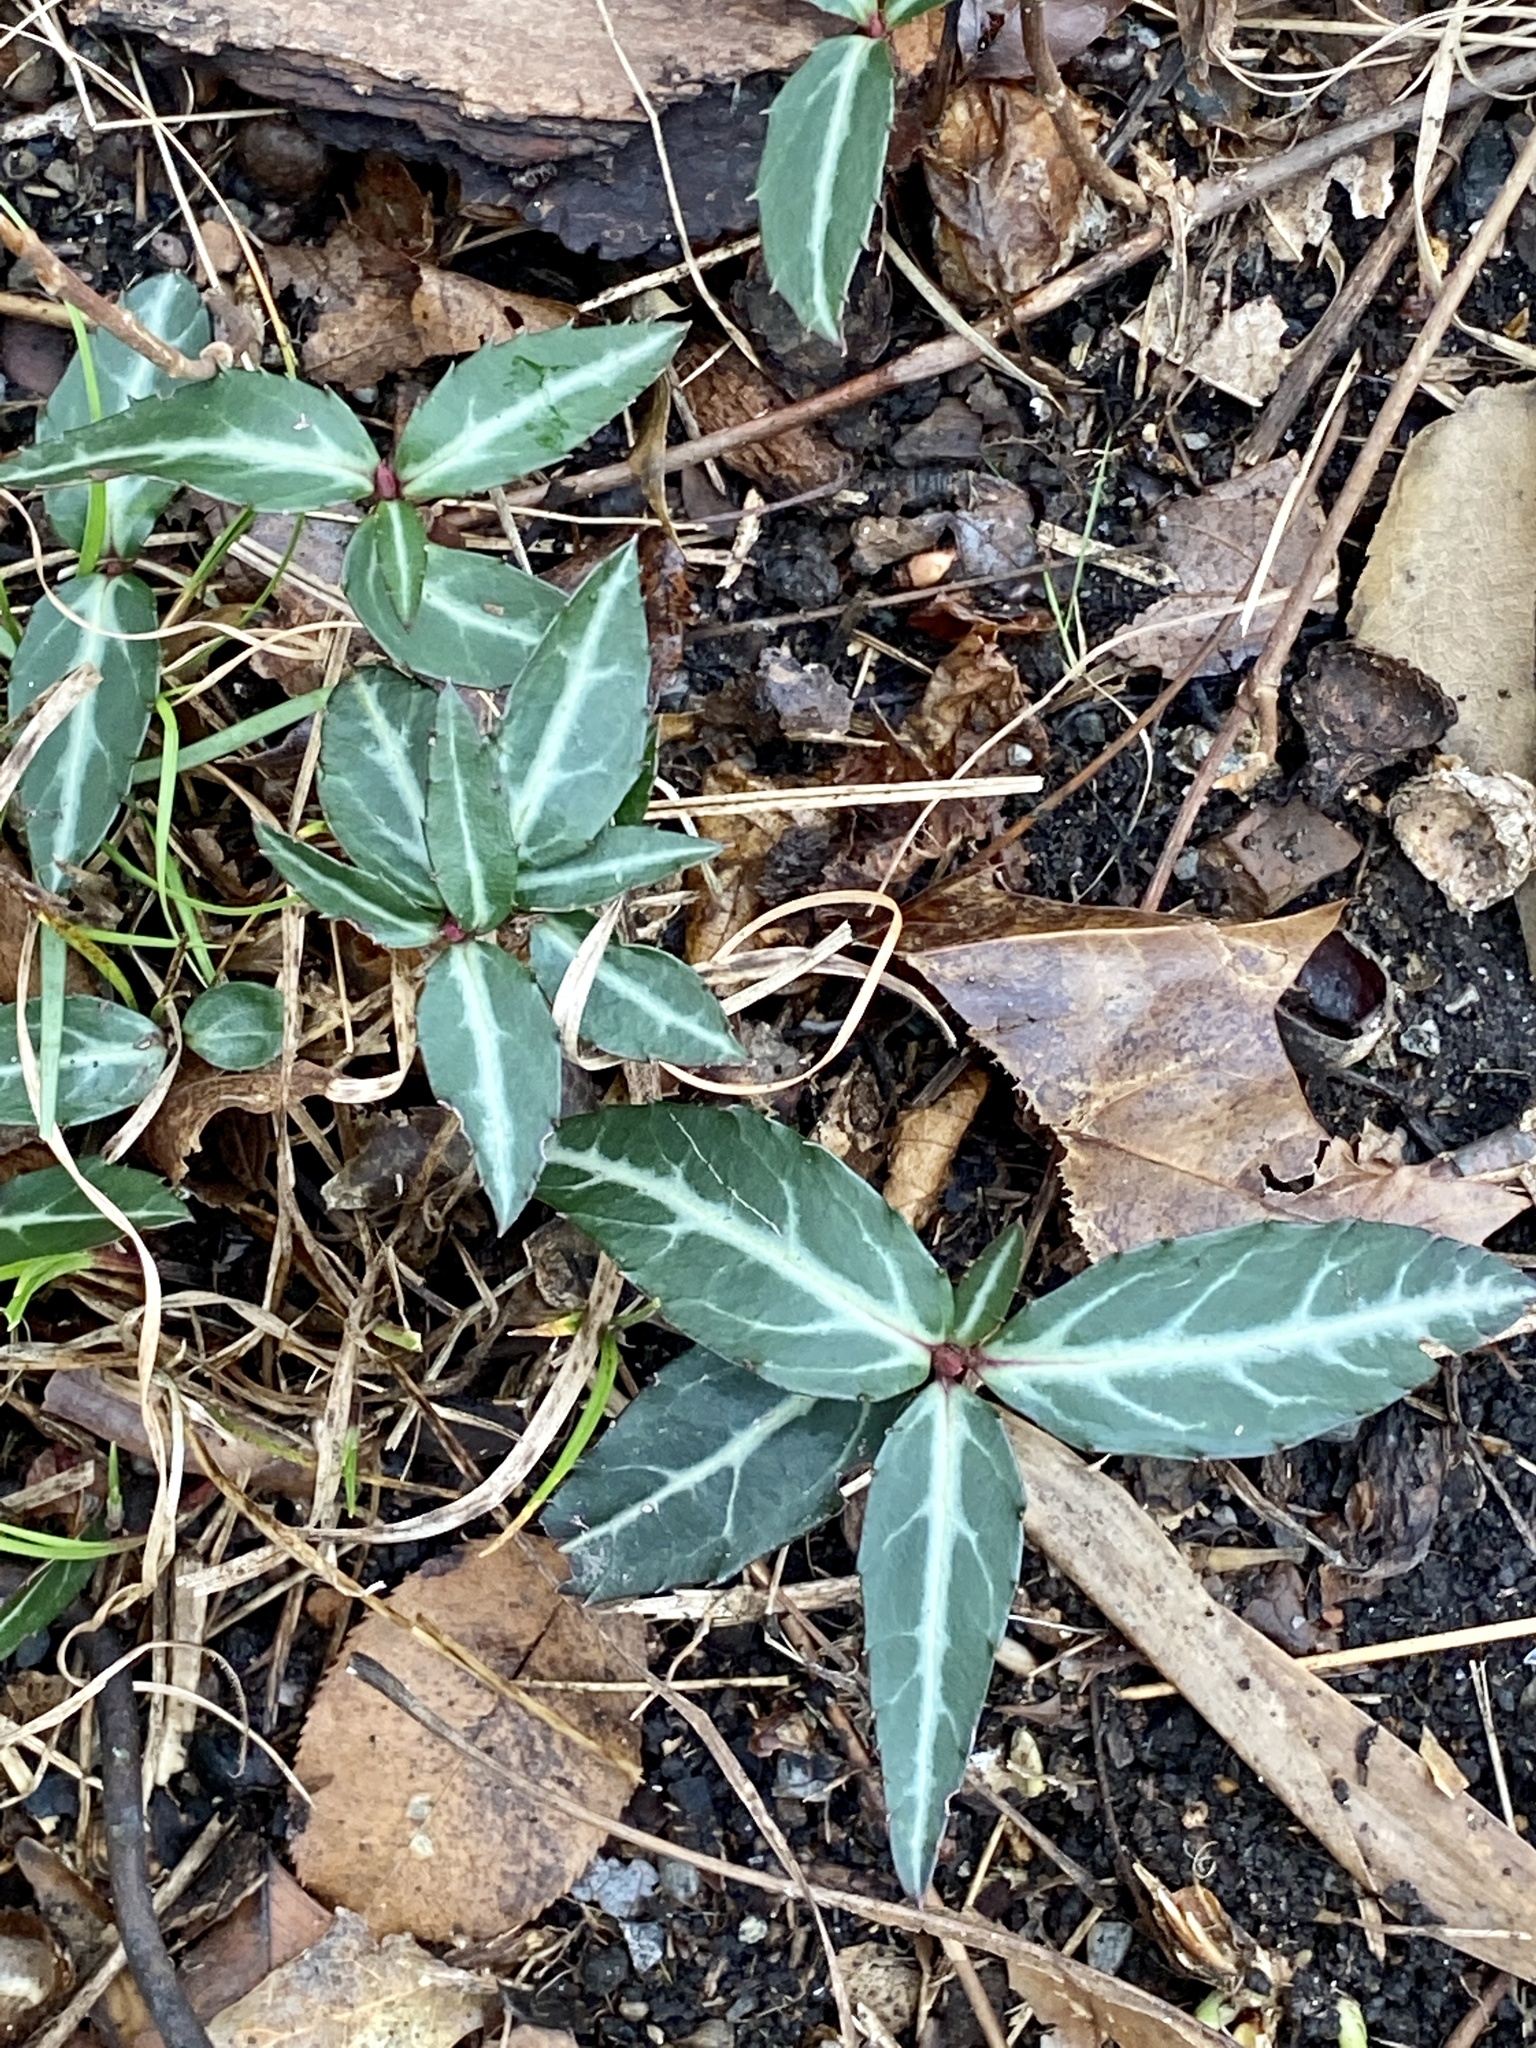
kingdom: Plantae
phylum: Tracheophyta
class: Magnoliopsida
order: Ericales
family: Ericaceae
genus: Chimaphila
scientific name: Chimaphila maculata
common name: Spotted pipsissewa
